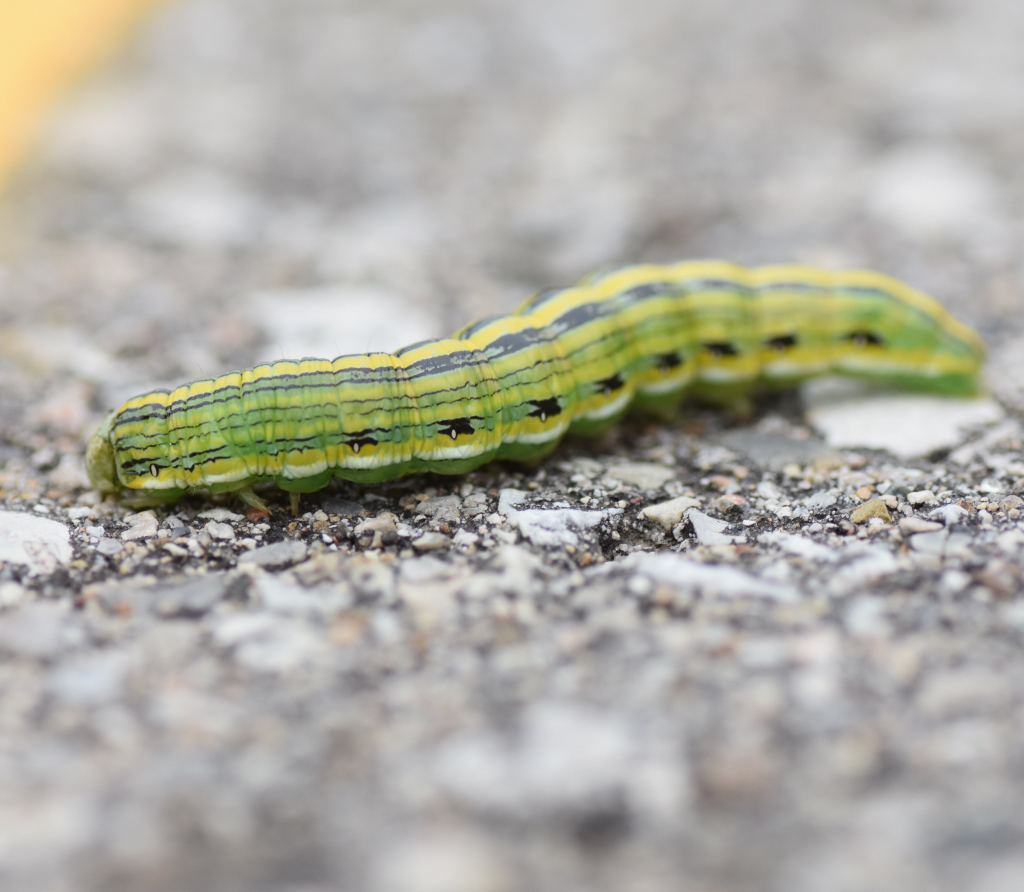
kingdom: Animalia
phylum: Arthropoda
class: Insecta
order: Lepidoptera
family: Noctuidae
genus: Cucullia
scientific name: Cucullia asteroides
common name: Asteroid moth
